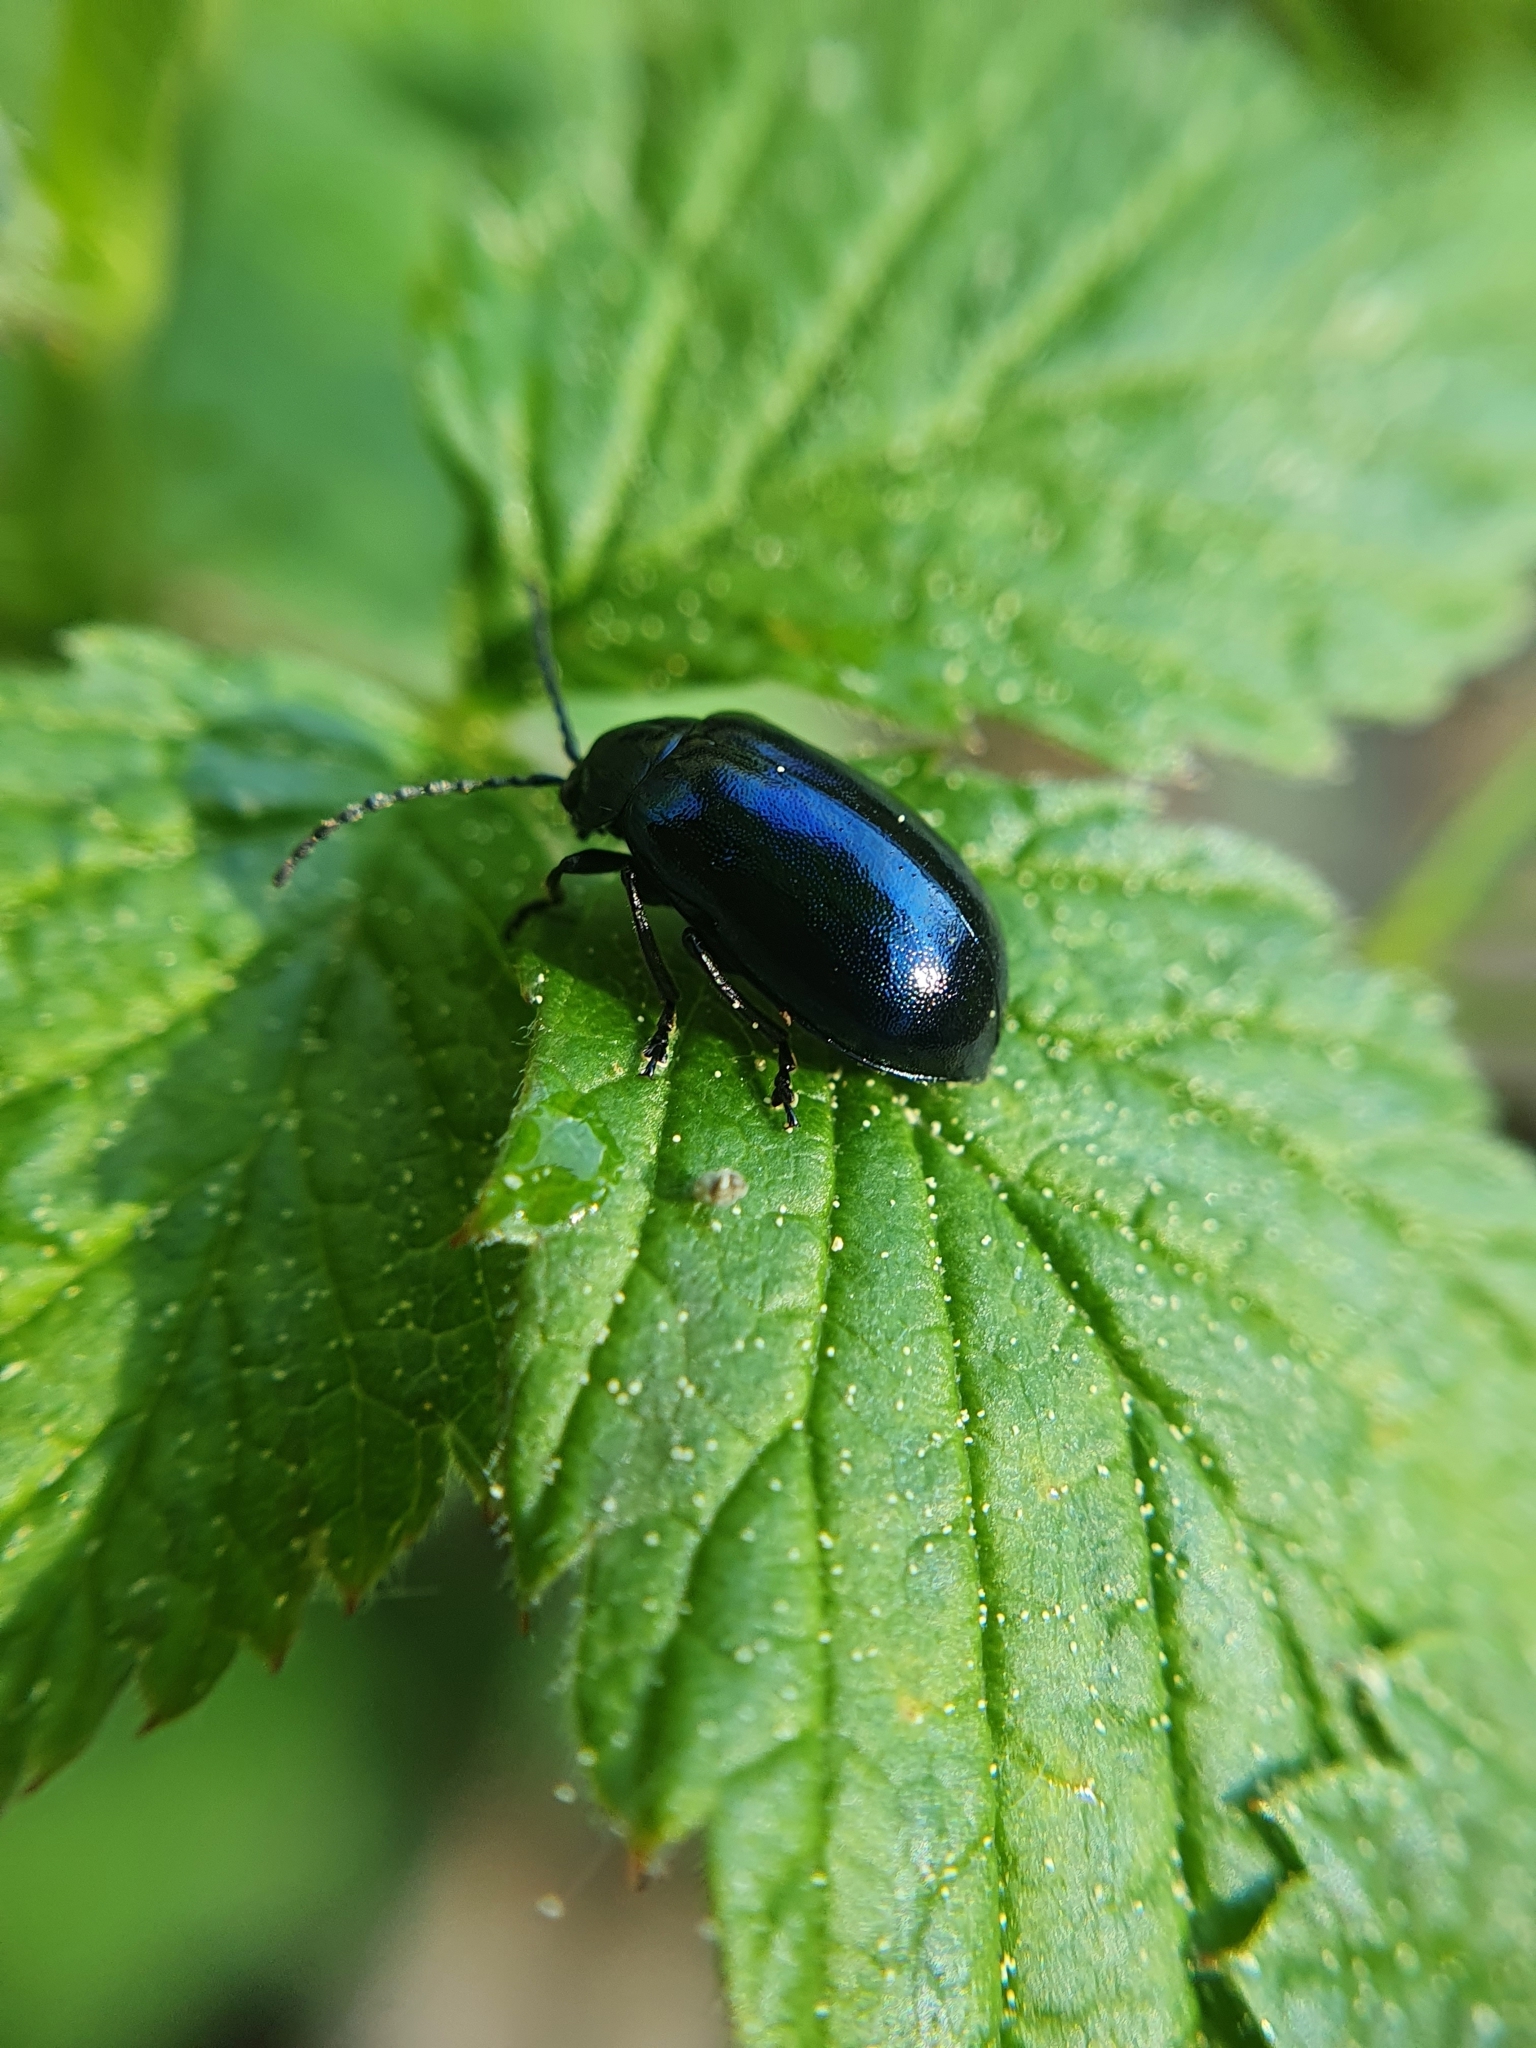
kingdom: Animalia
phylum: Arthropoda
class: Insecta
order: Coleoptera
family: Chrysomelidae
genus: Agelastica
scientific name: Agelastica alni
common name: Alder leaf beetle
